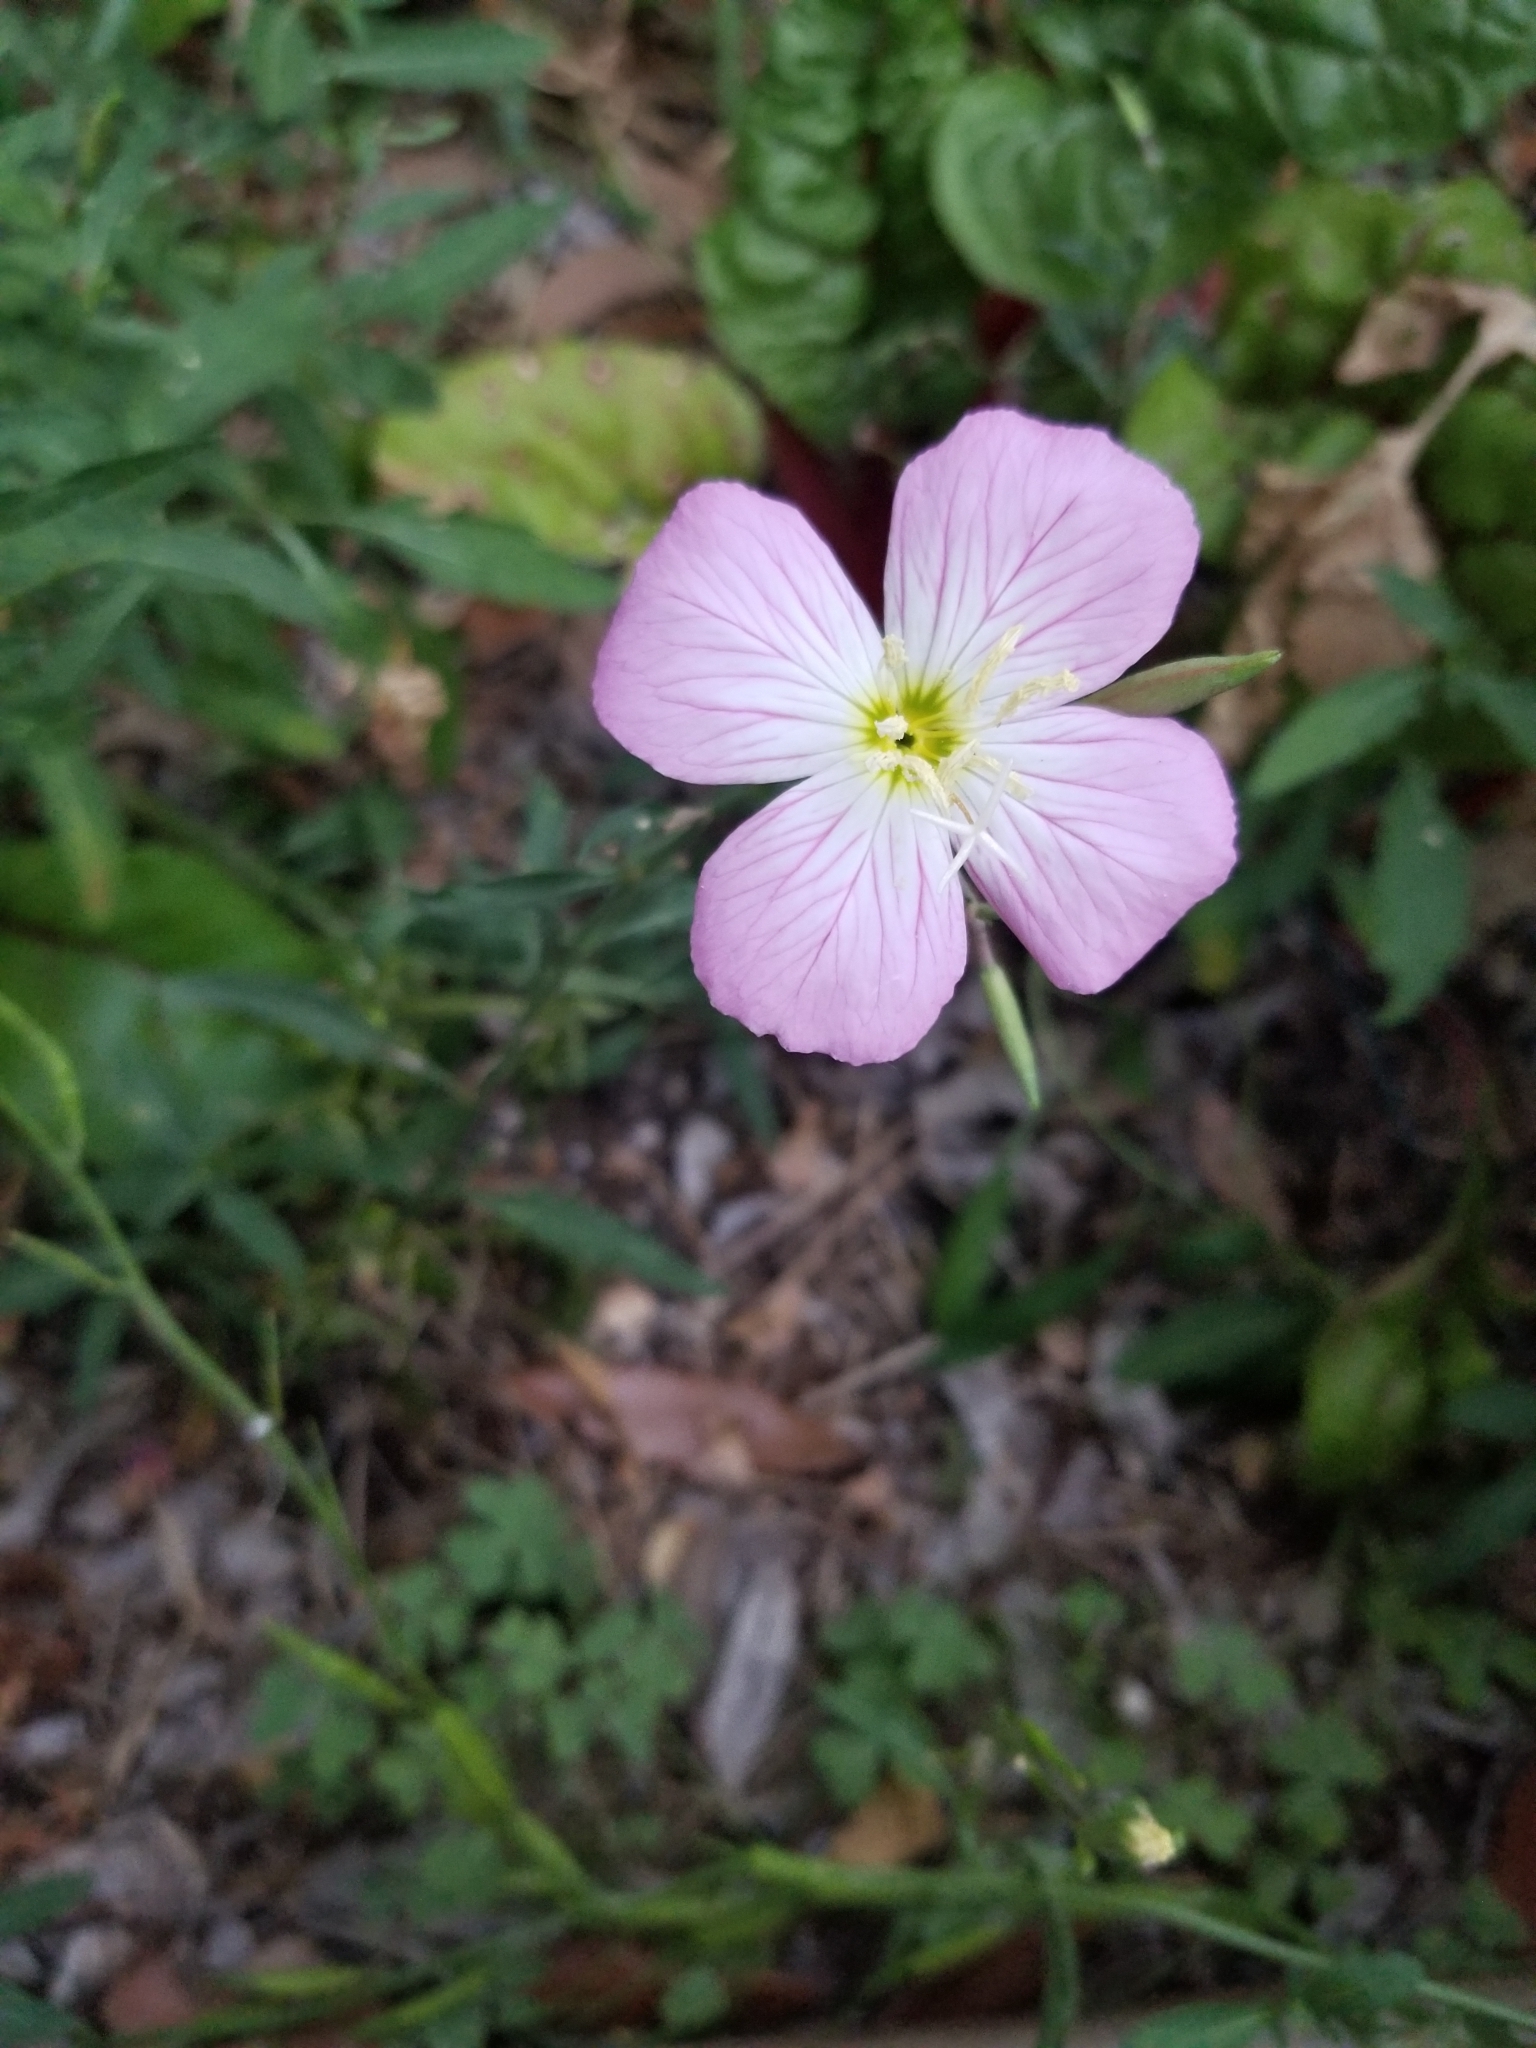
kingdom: Plantae
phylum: Tracheophyta
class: Magnoliopsida
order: Myrtales
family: Onagraceae
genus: Oenothera
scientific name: Oenothera speciosa
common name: White evening-primrose
